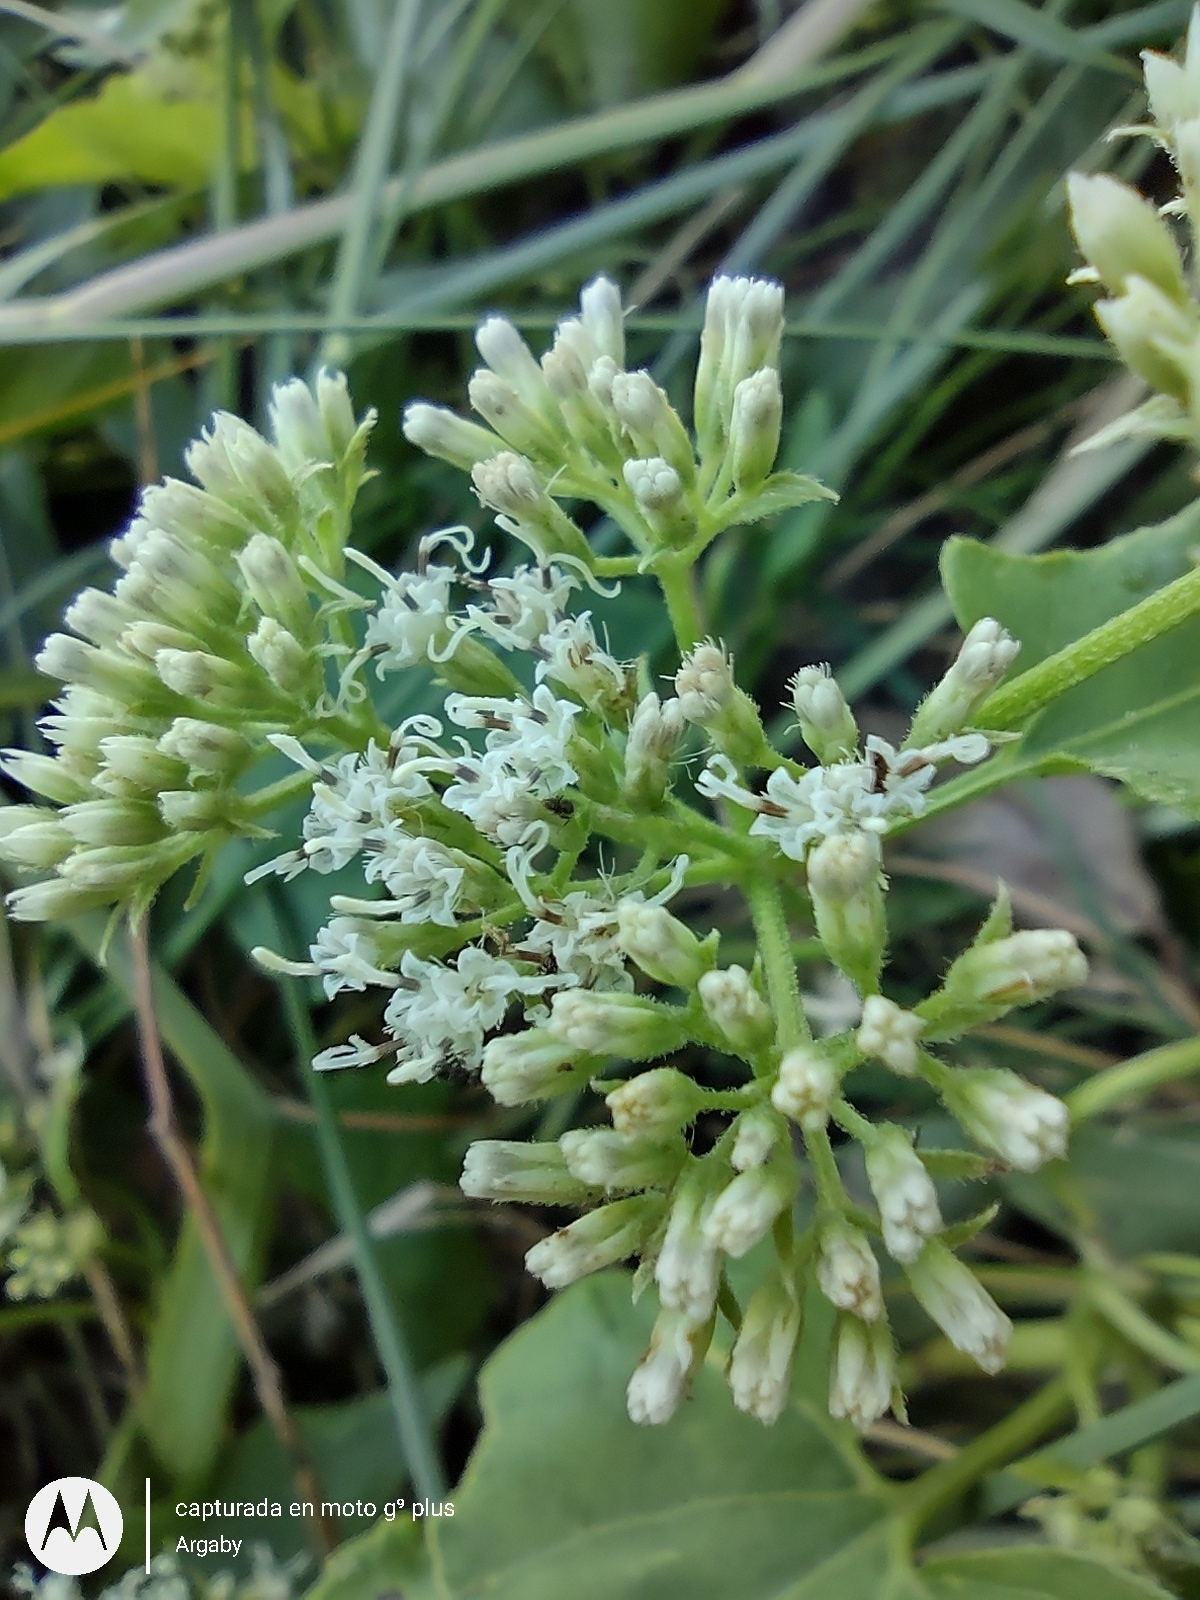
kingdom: Plantae
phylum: Tracheophyta
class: Magnoliopsida
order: Asterales
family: Asteraceae
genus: Mikania
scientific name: Mikania micrantha
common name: Mile-a-minute
